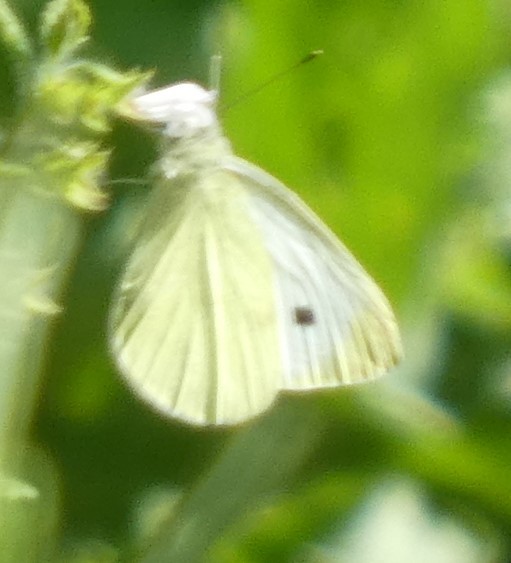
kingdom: Animalia
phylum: Arthropoda
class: Insecta
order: Lepidoptera
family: Pieridae
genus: Pieris
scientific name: Pieris rapae
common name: Small white
